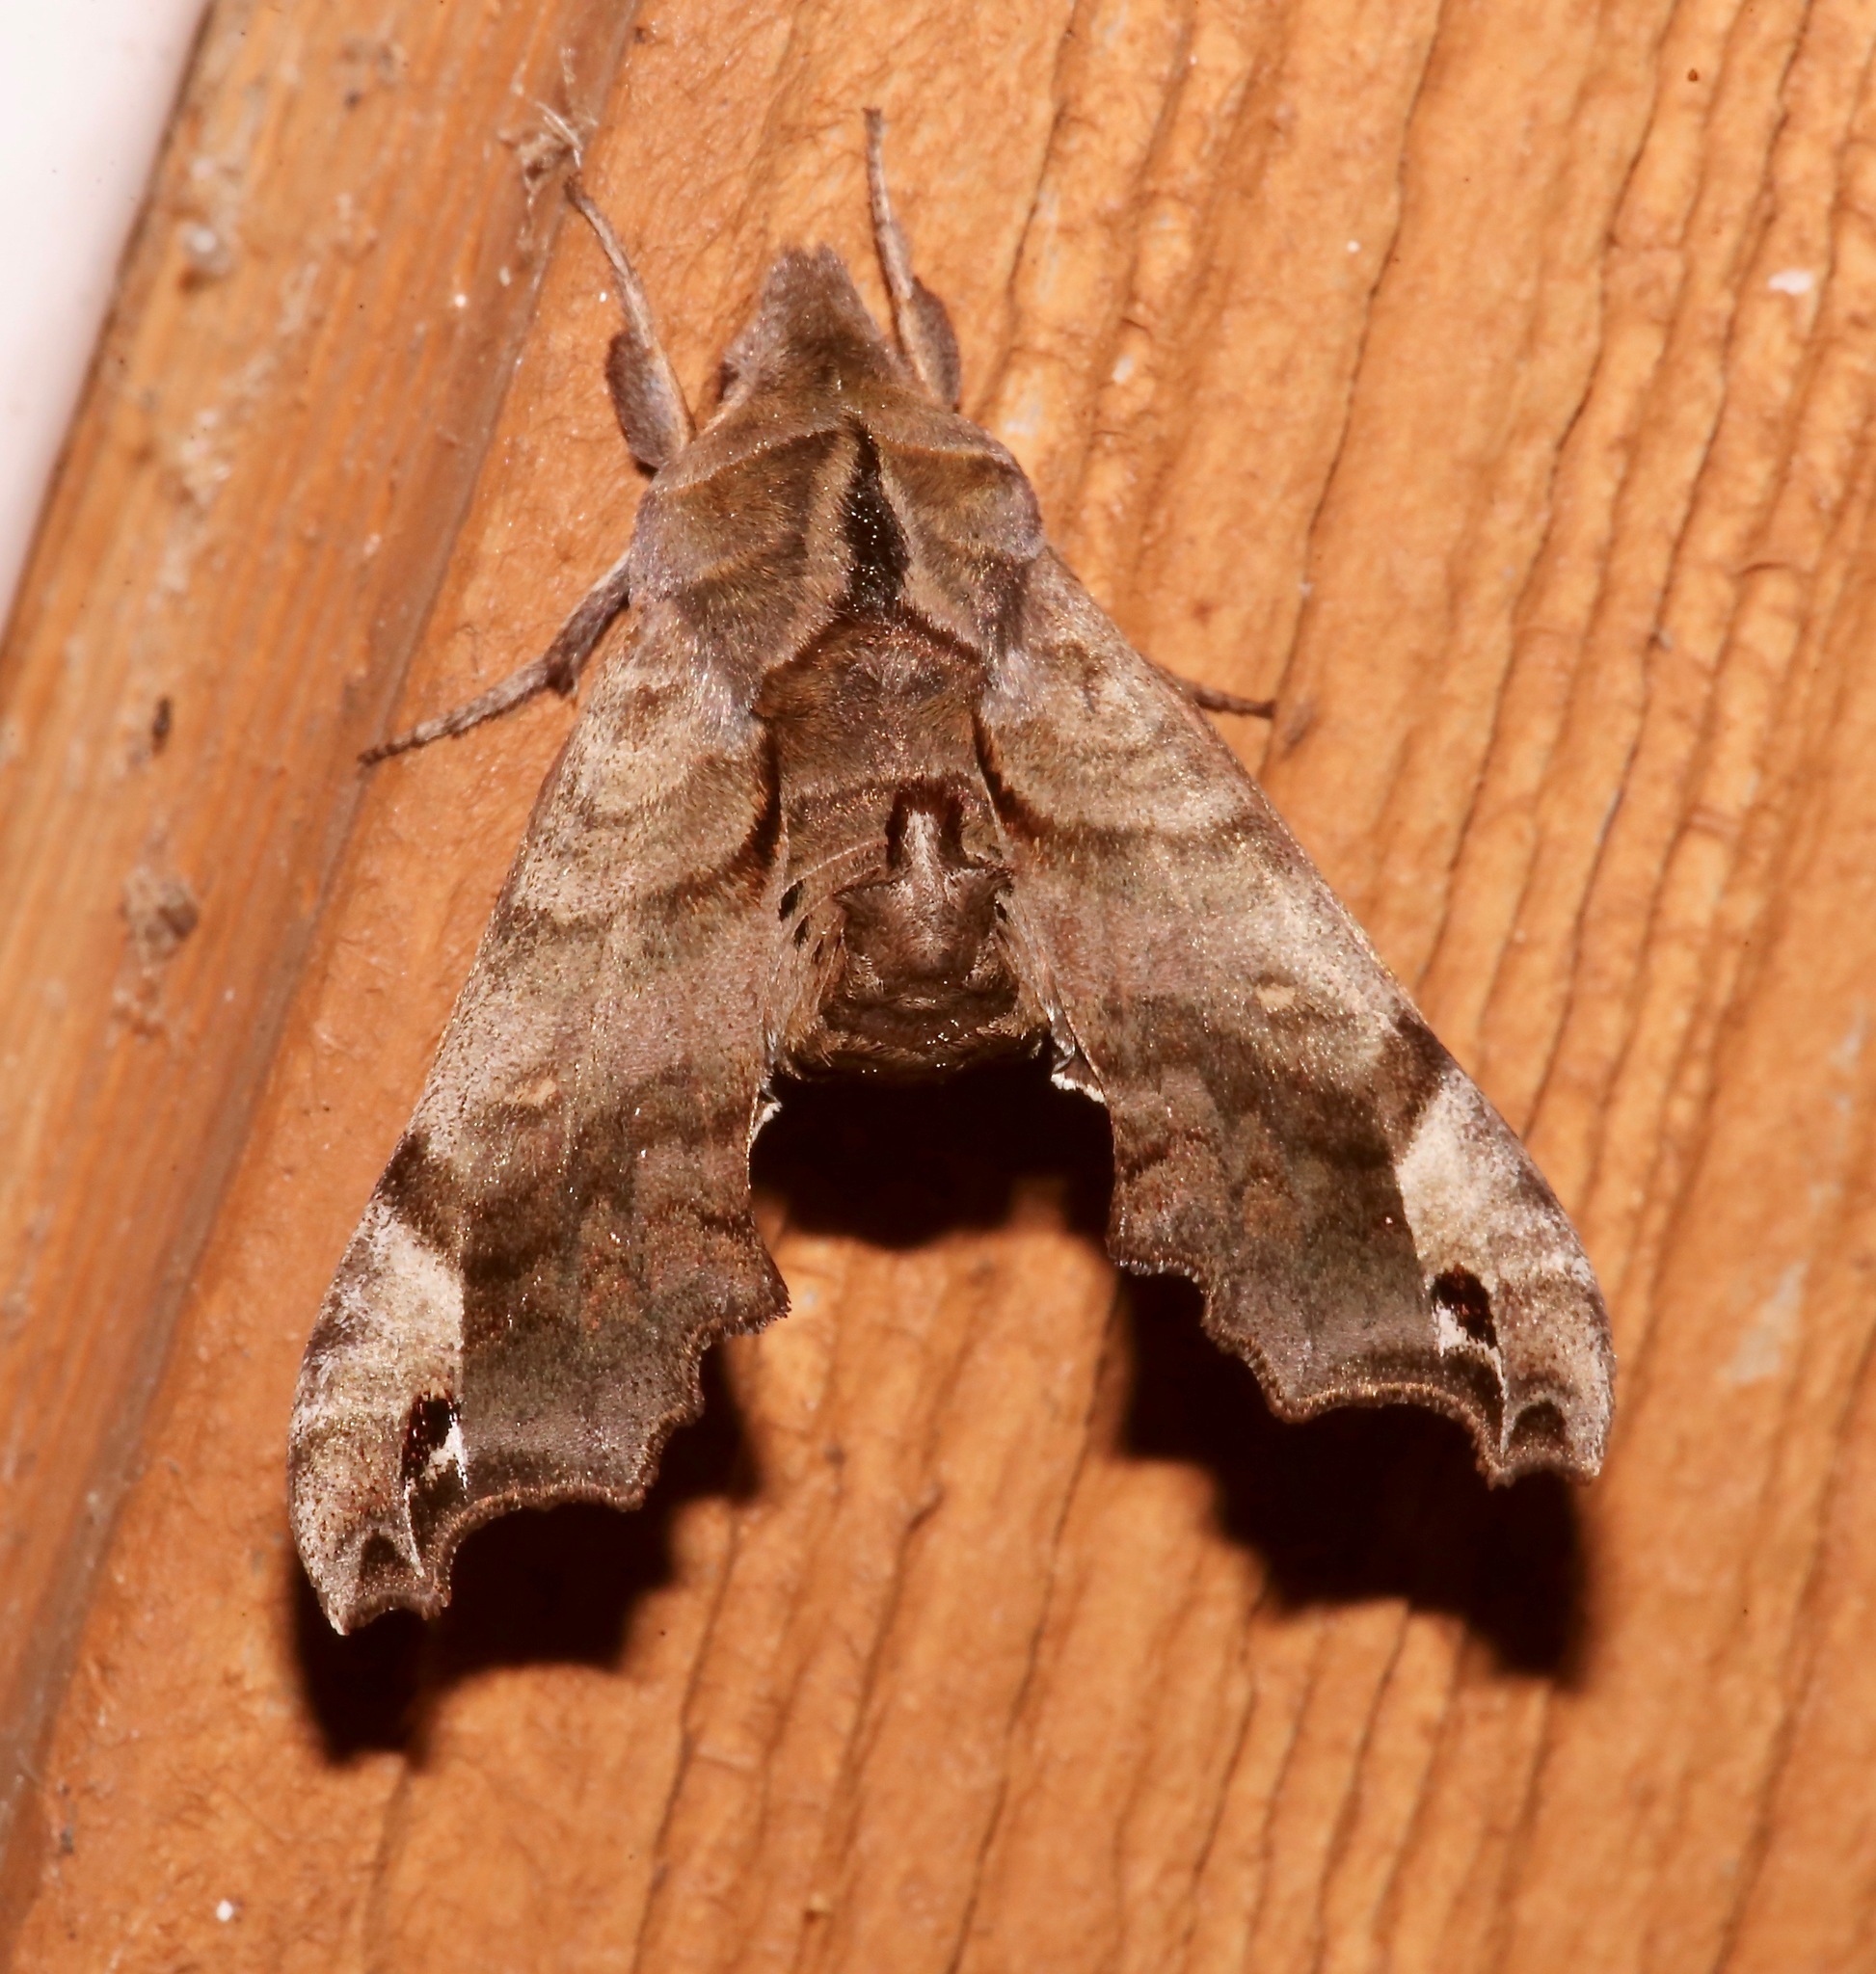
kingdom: Animalia
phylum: Arthropoda
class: Insecta
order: Lepidoptera
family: Sphingidae
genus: Deidamia
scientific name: Deidamia inscriptum
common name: Lettered sphinx
